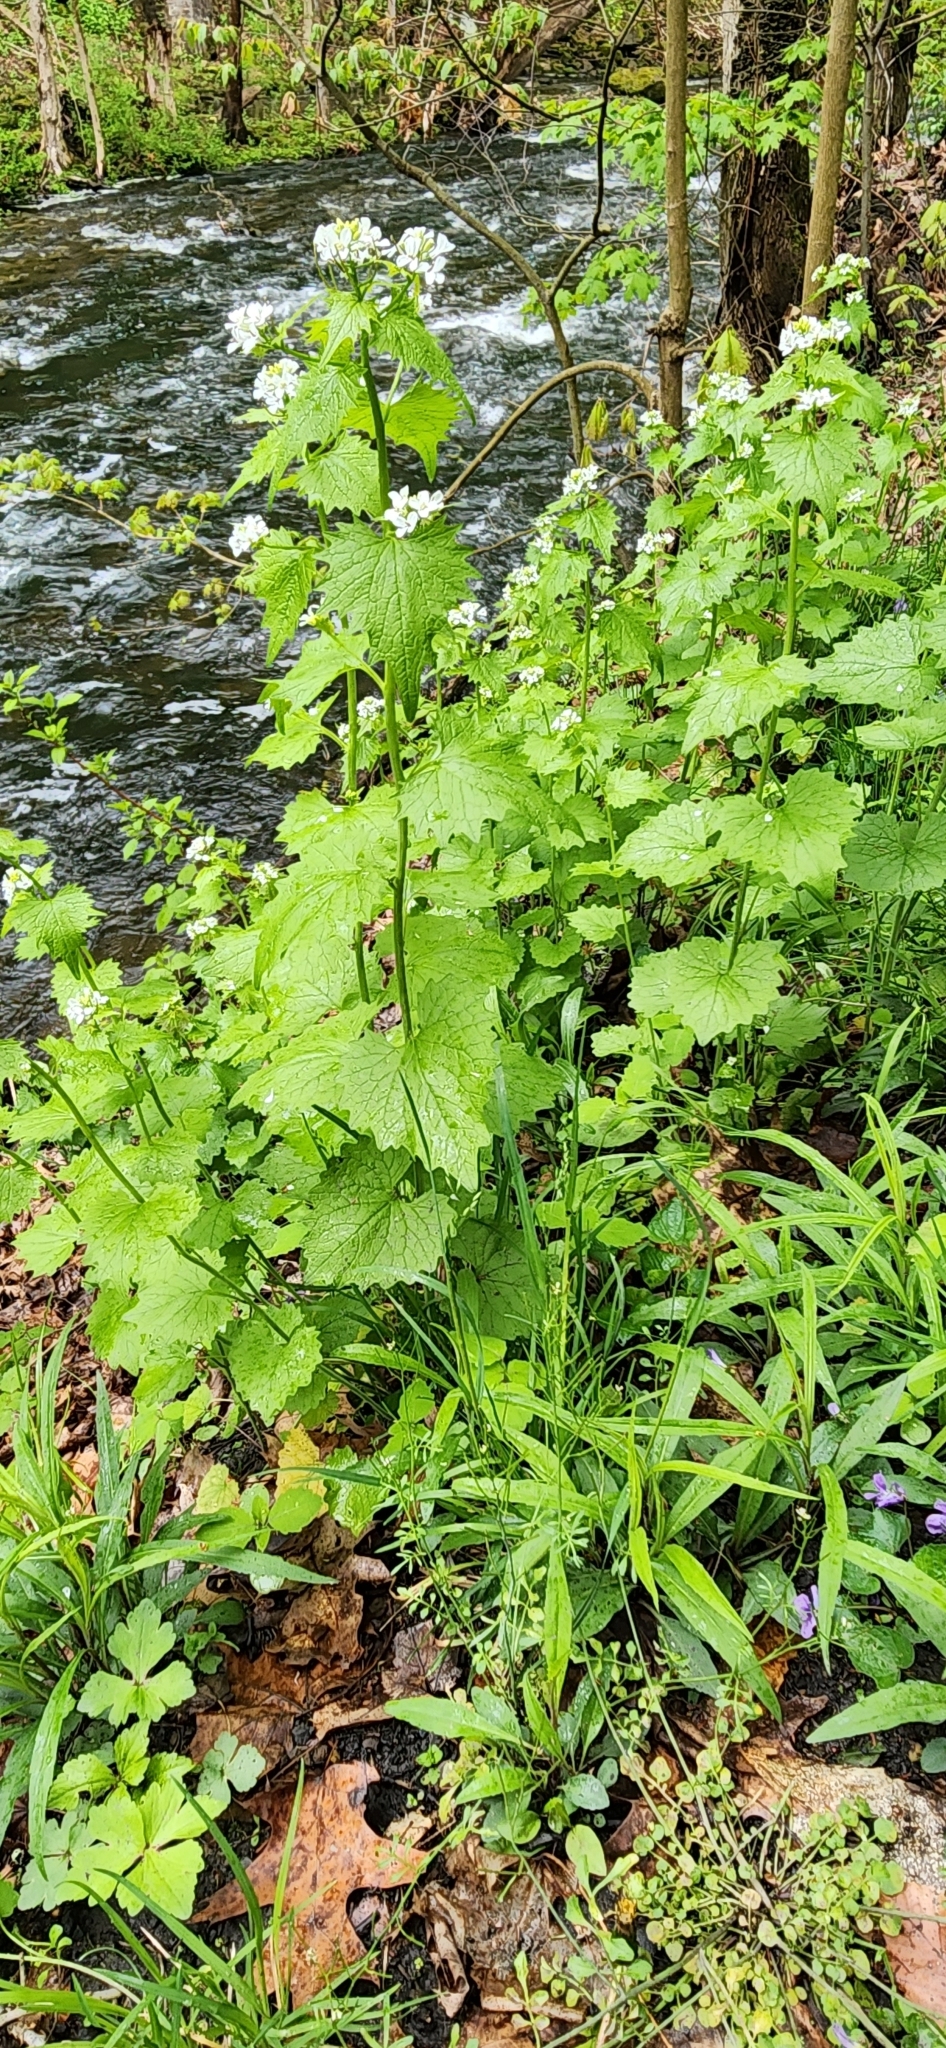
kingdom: Plantae
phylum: Tracheophyta
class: Magnoliopsida
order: Brassicales
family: Brassicaceae
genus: Alliaria
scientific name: Alliaria petiolata
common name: Garlic mustard
